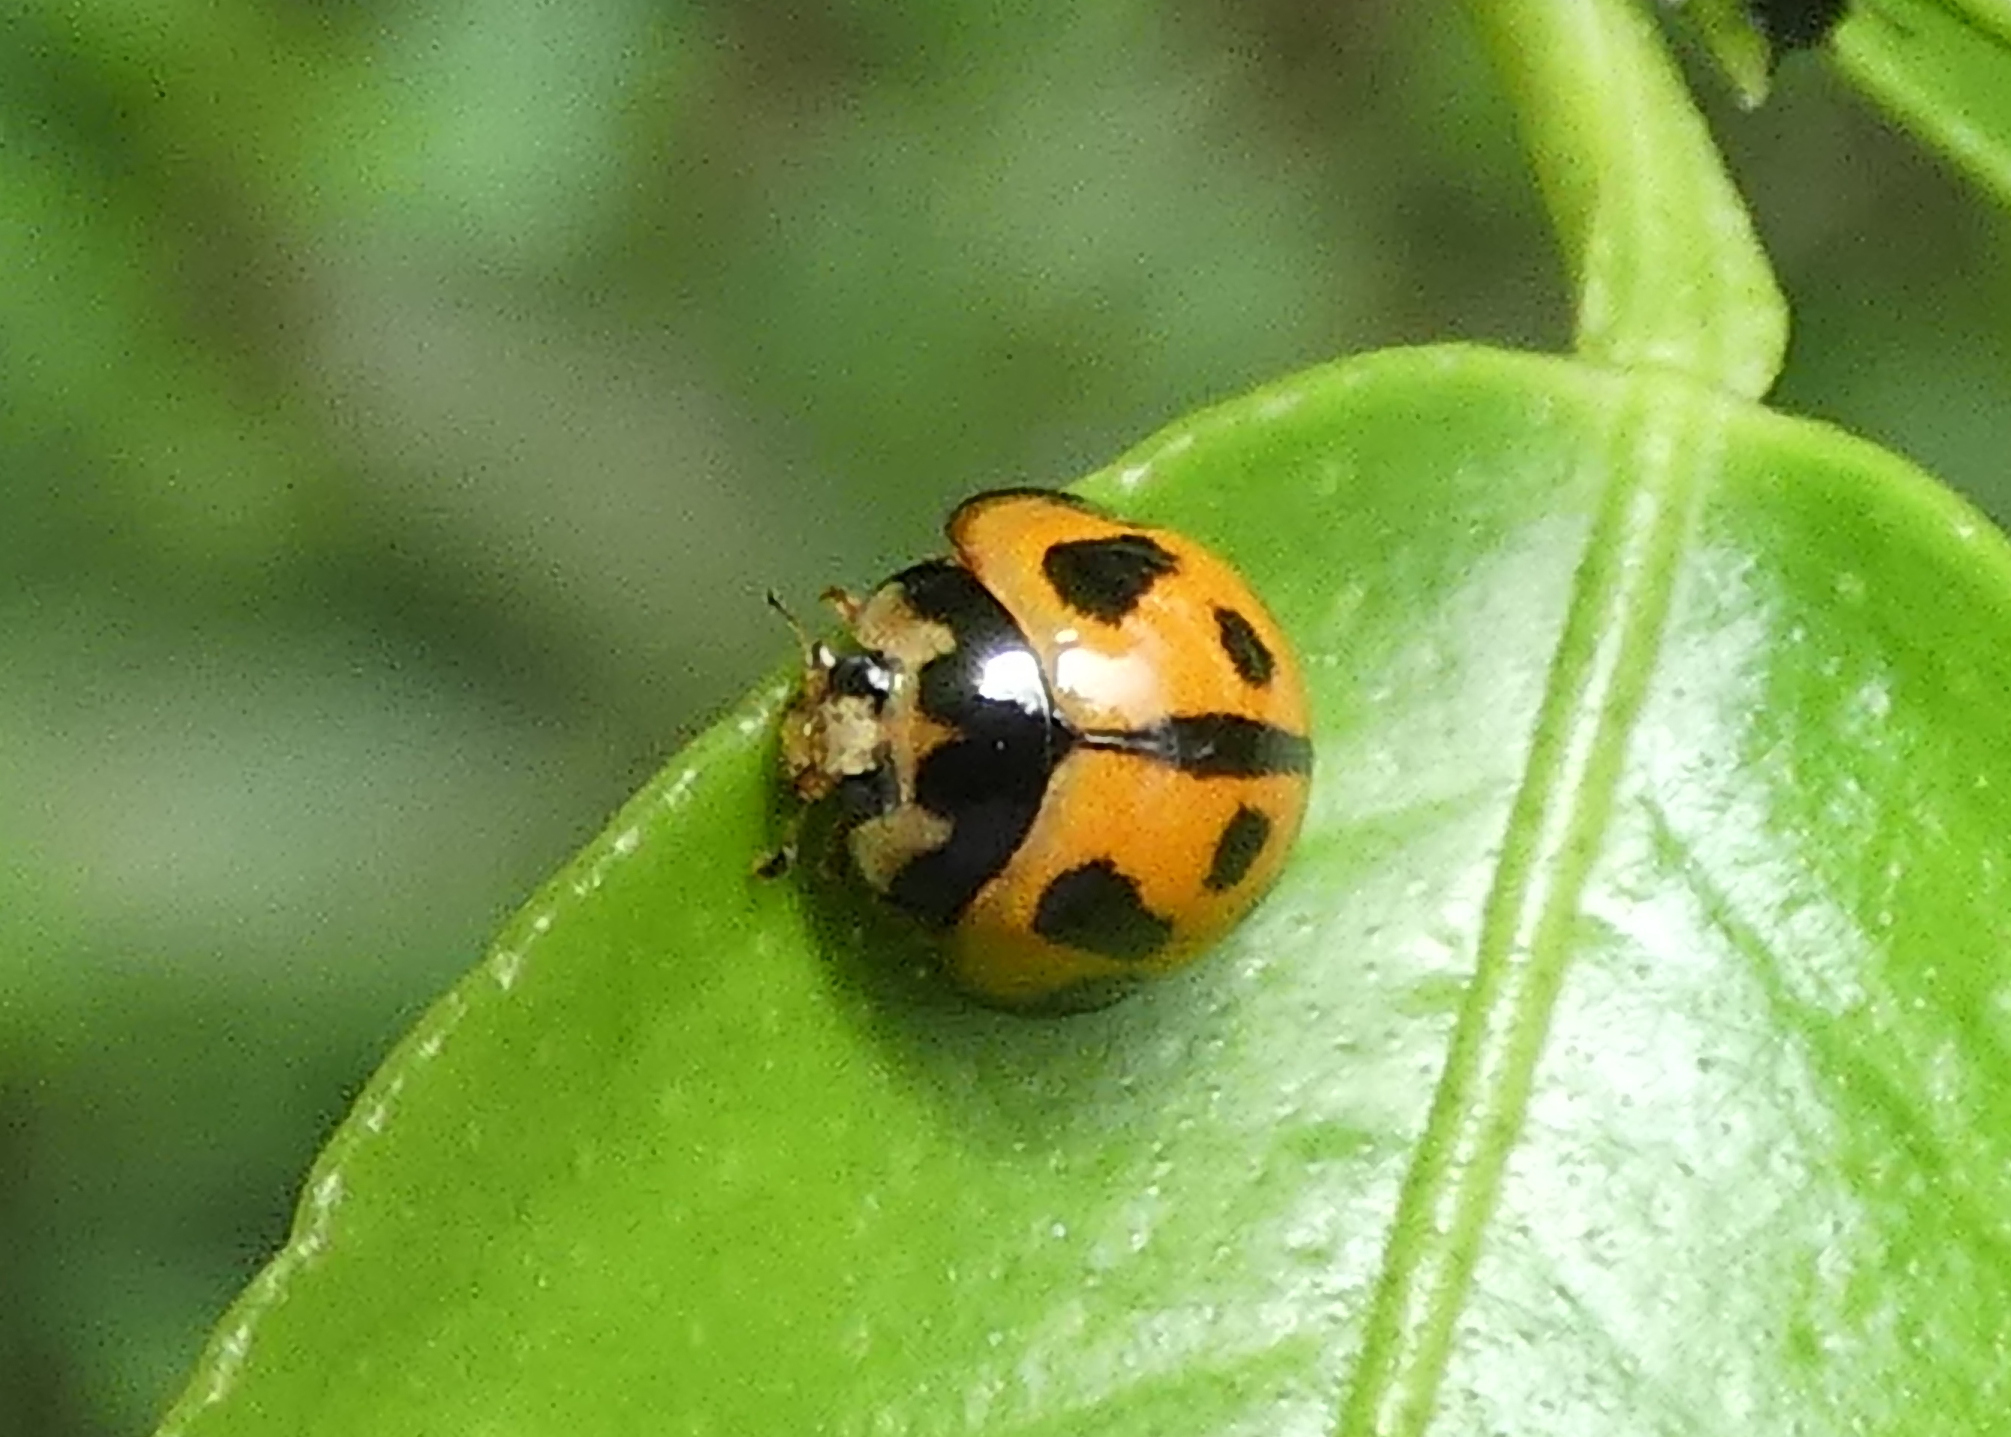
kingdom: Animalia
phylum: Arthropoda
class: Insecta
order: Coleoptera
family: Coccinellidae
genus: Coelophora
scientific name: Coelophora inaequalis
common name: Common australian lady beetle
